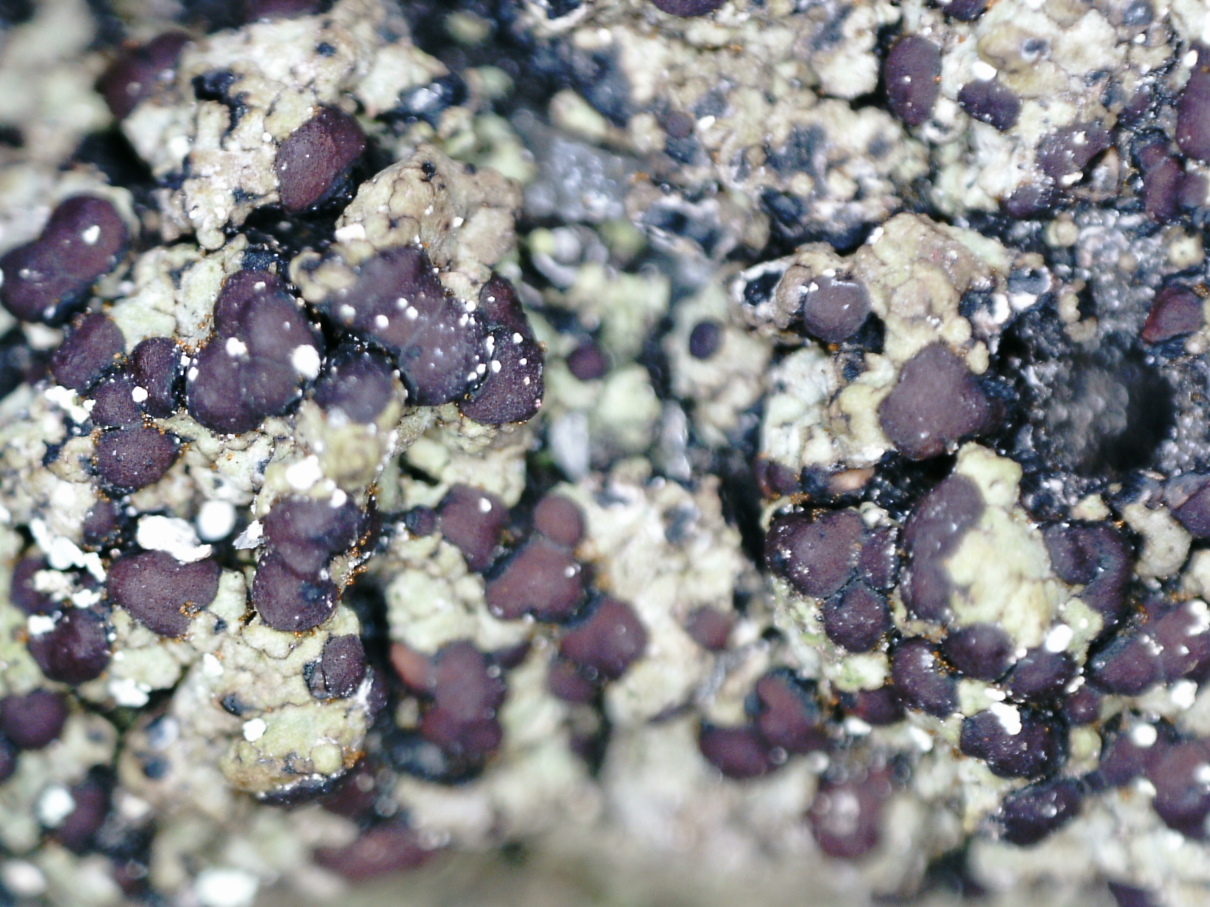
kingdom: Fungi
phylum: Ascomycota
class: Lecanoromycetes
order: Baeomycetales
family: Trapeliaceae
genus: Placynthiella
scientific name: Placynthiella oligotropha
